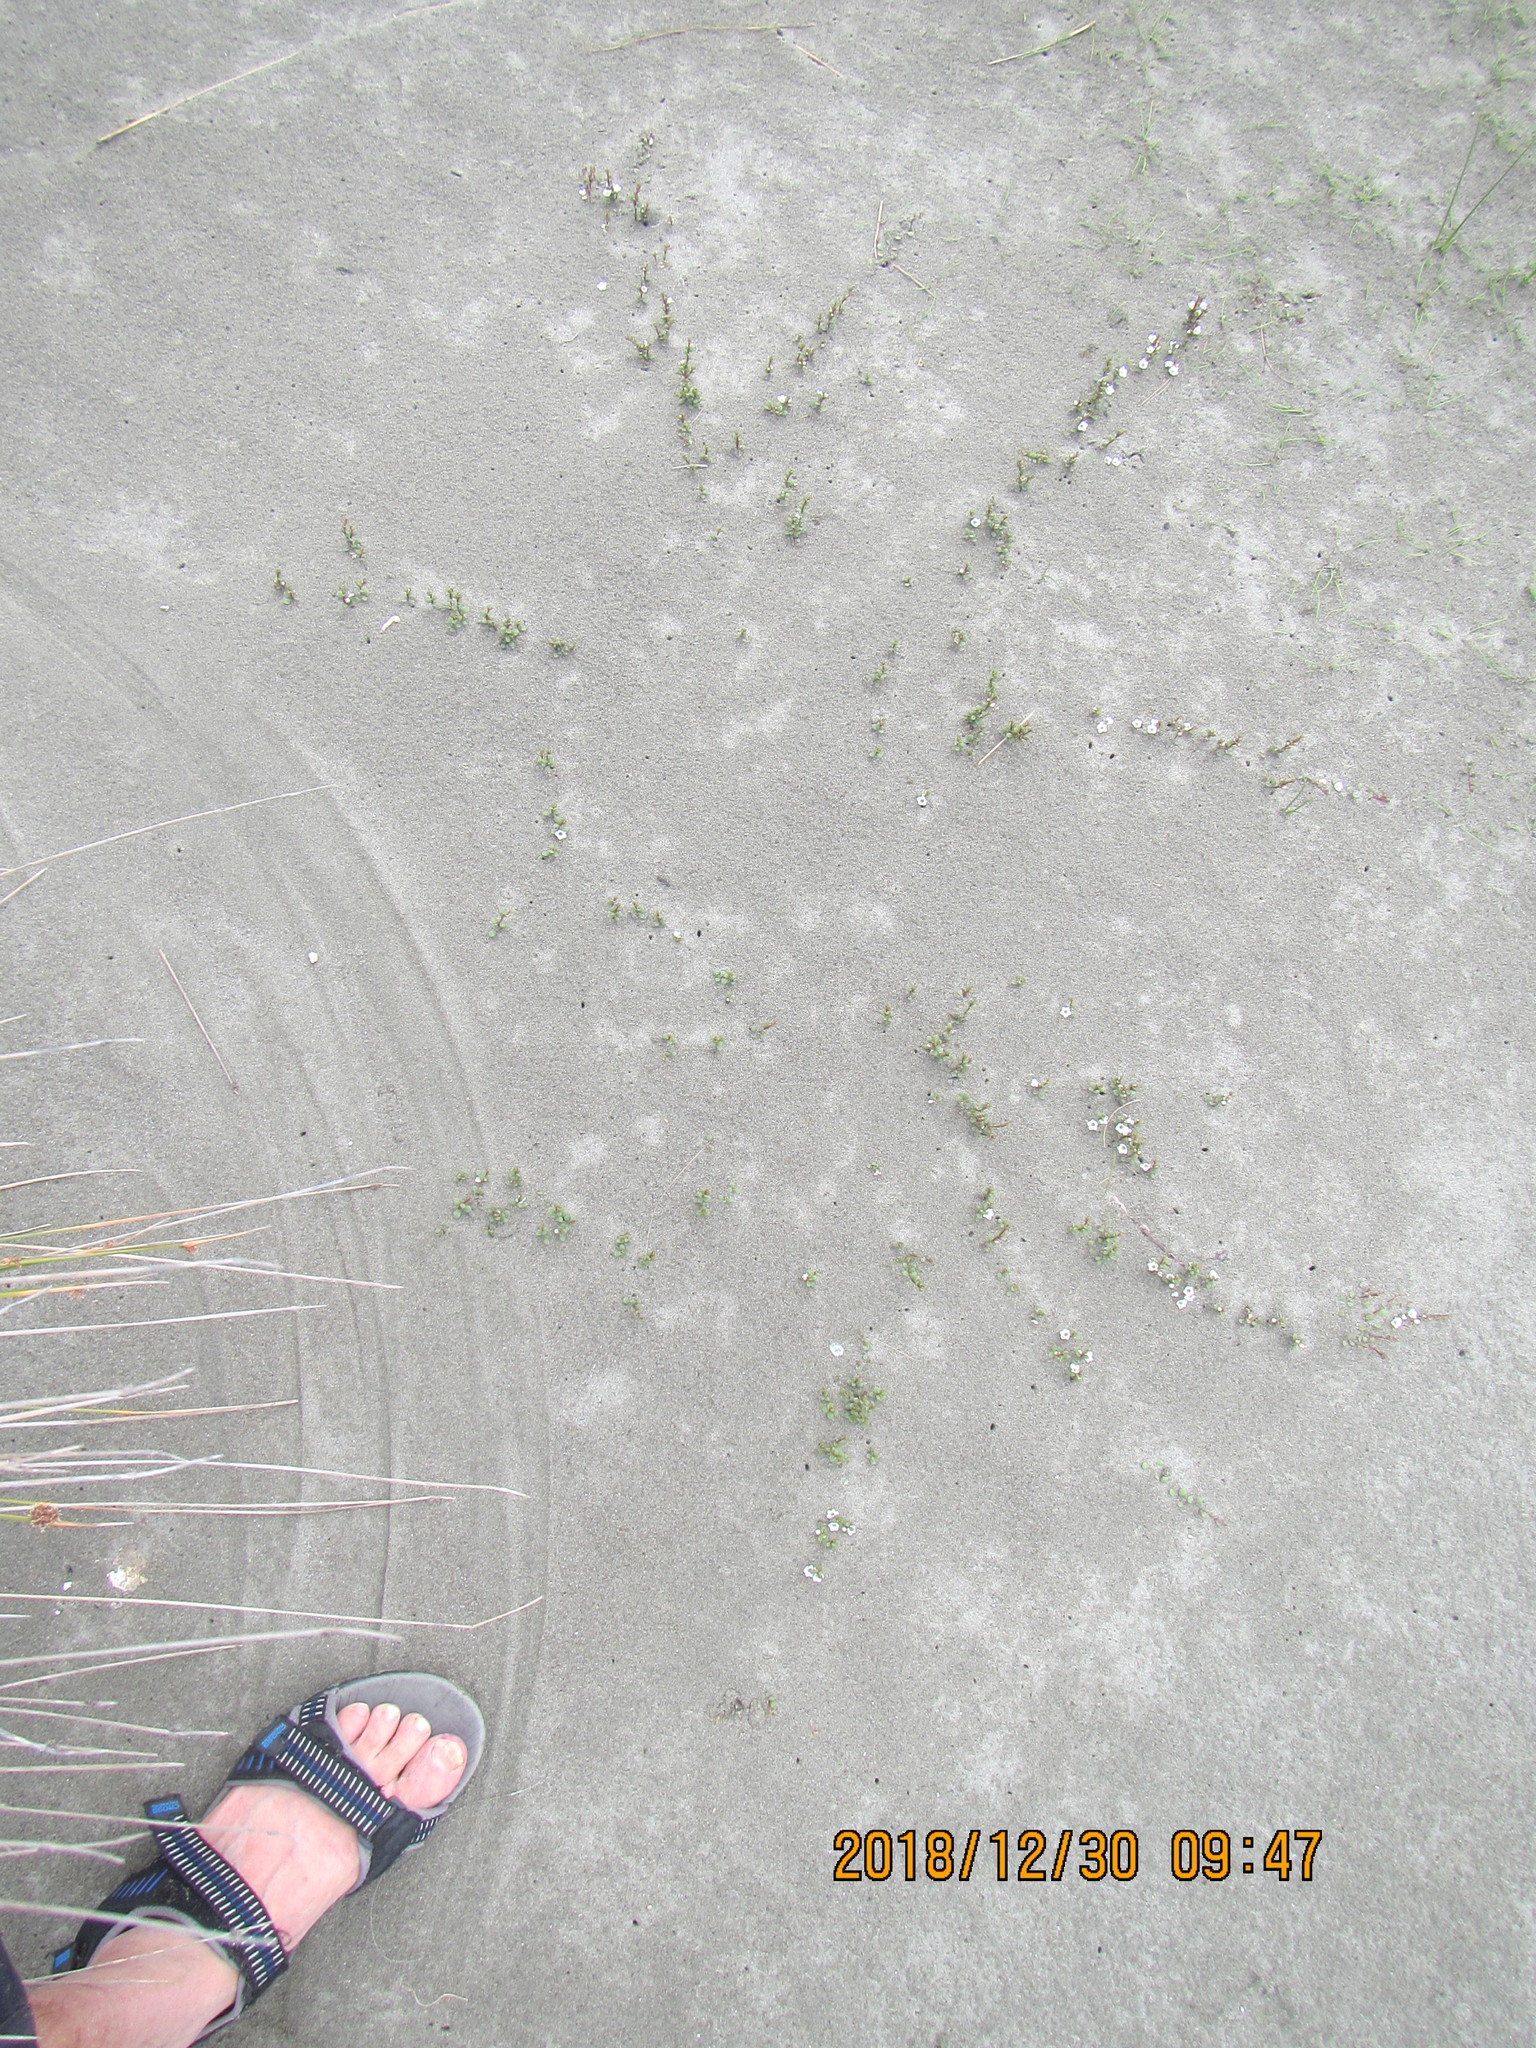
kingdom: Plantae
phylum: Tracheophyta
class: Magnoliopsida
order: Ericales
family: Primulaceae
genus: Samolus
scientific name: Samolus repens
